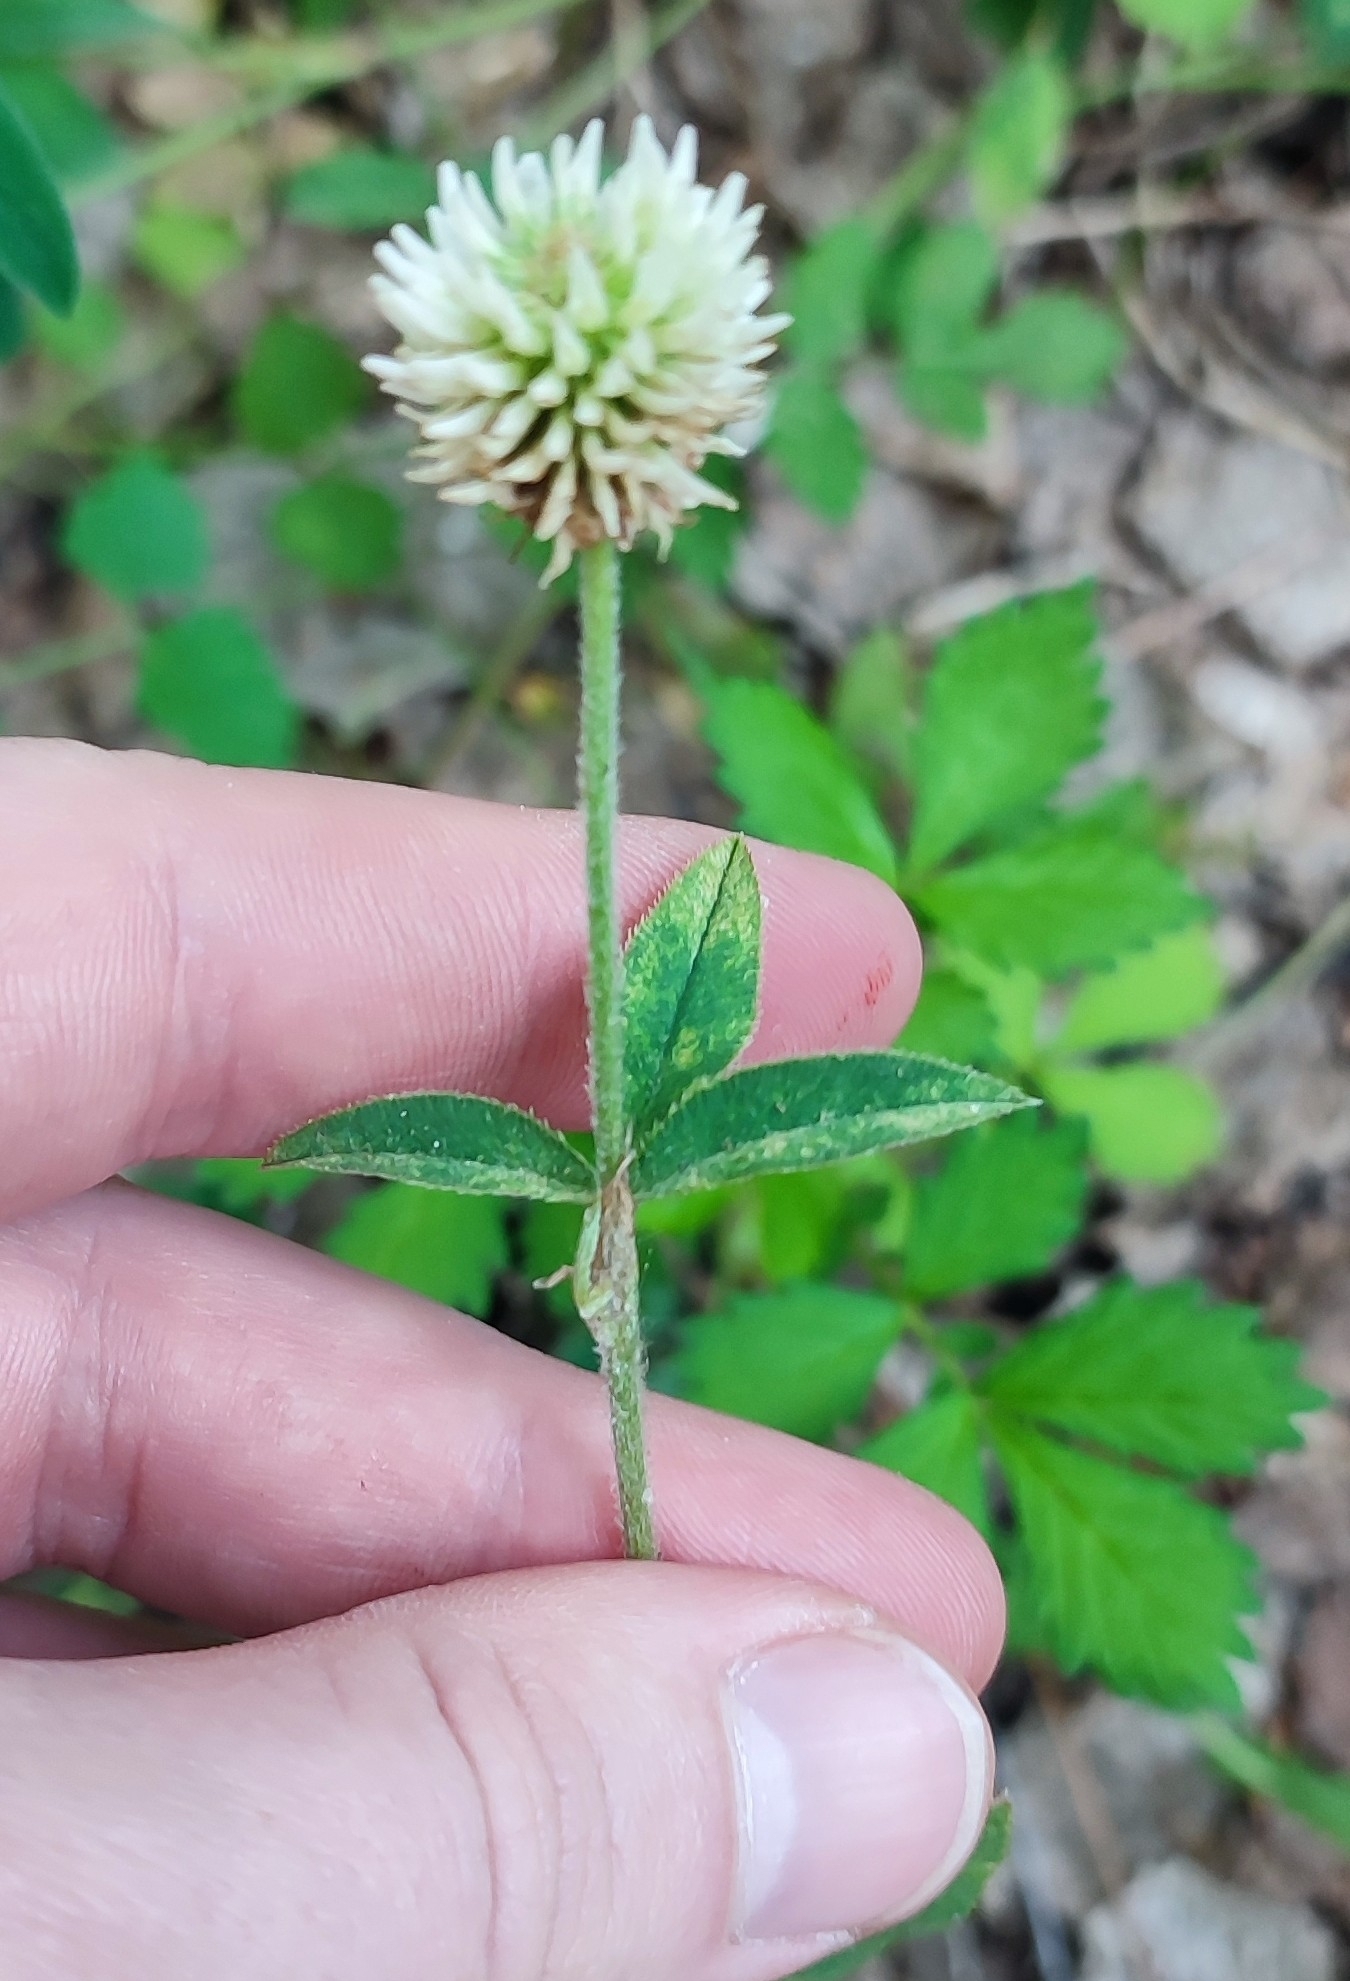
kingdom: Plantae
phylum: Tracheophyta
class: Magnoliopsida
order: Fabales
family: Fabaceae
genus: Trifolium
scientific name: Trifolium montanum
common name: Mountain clover
